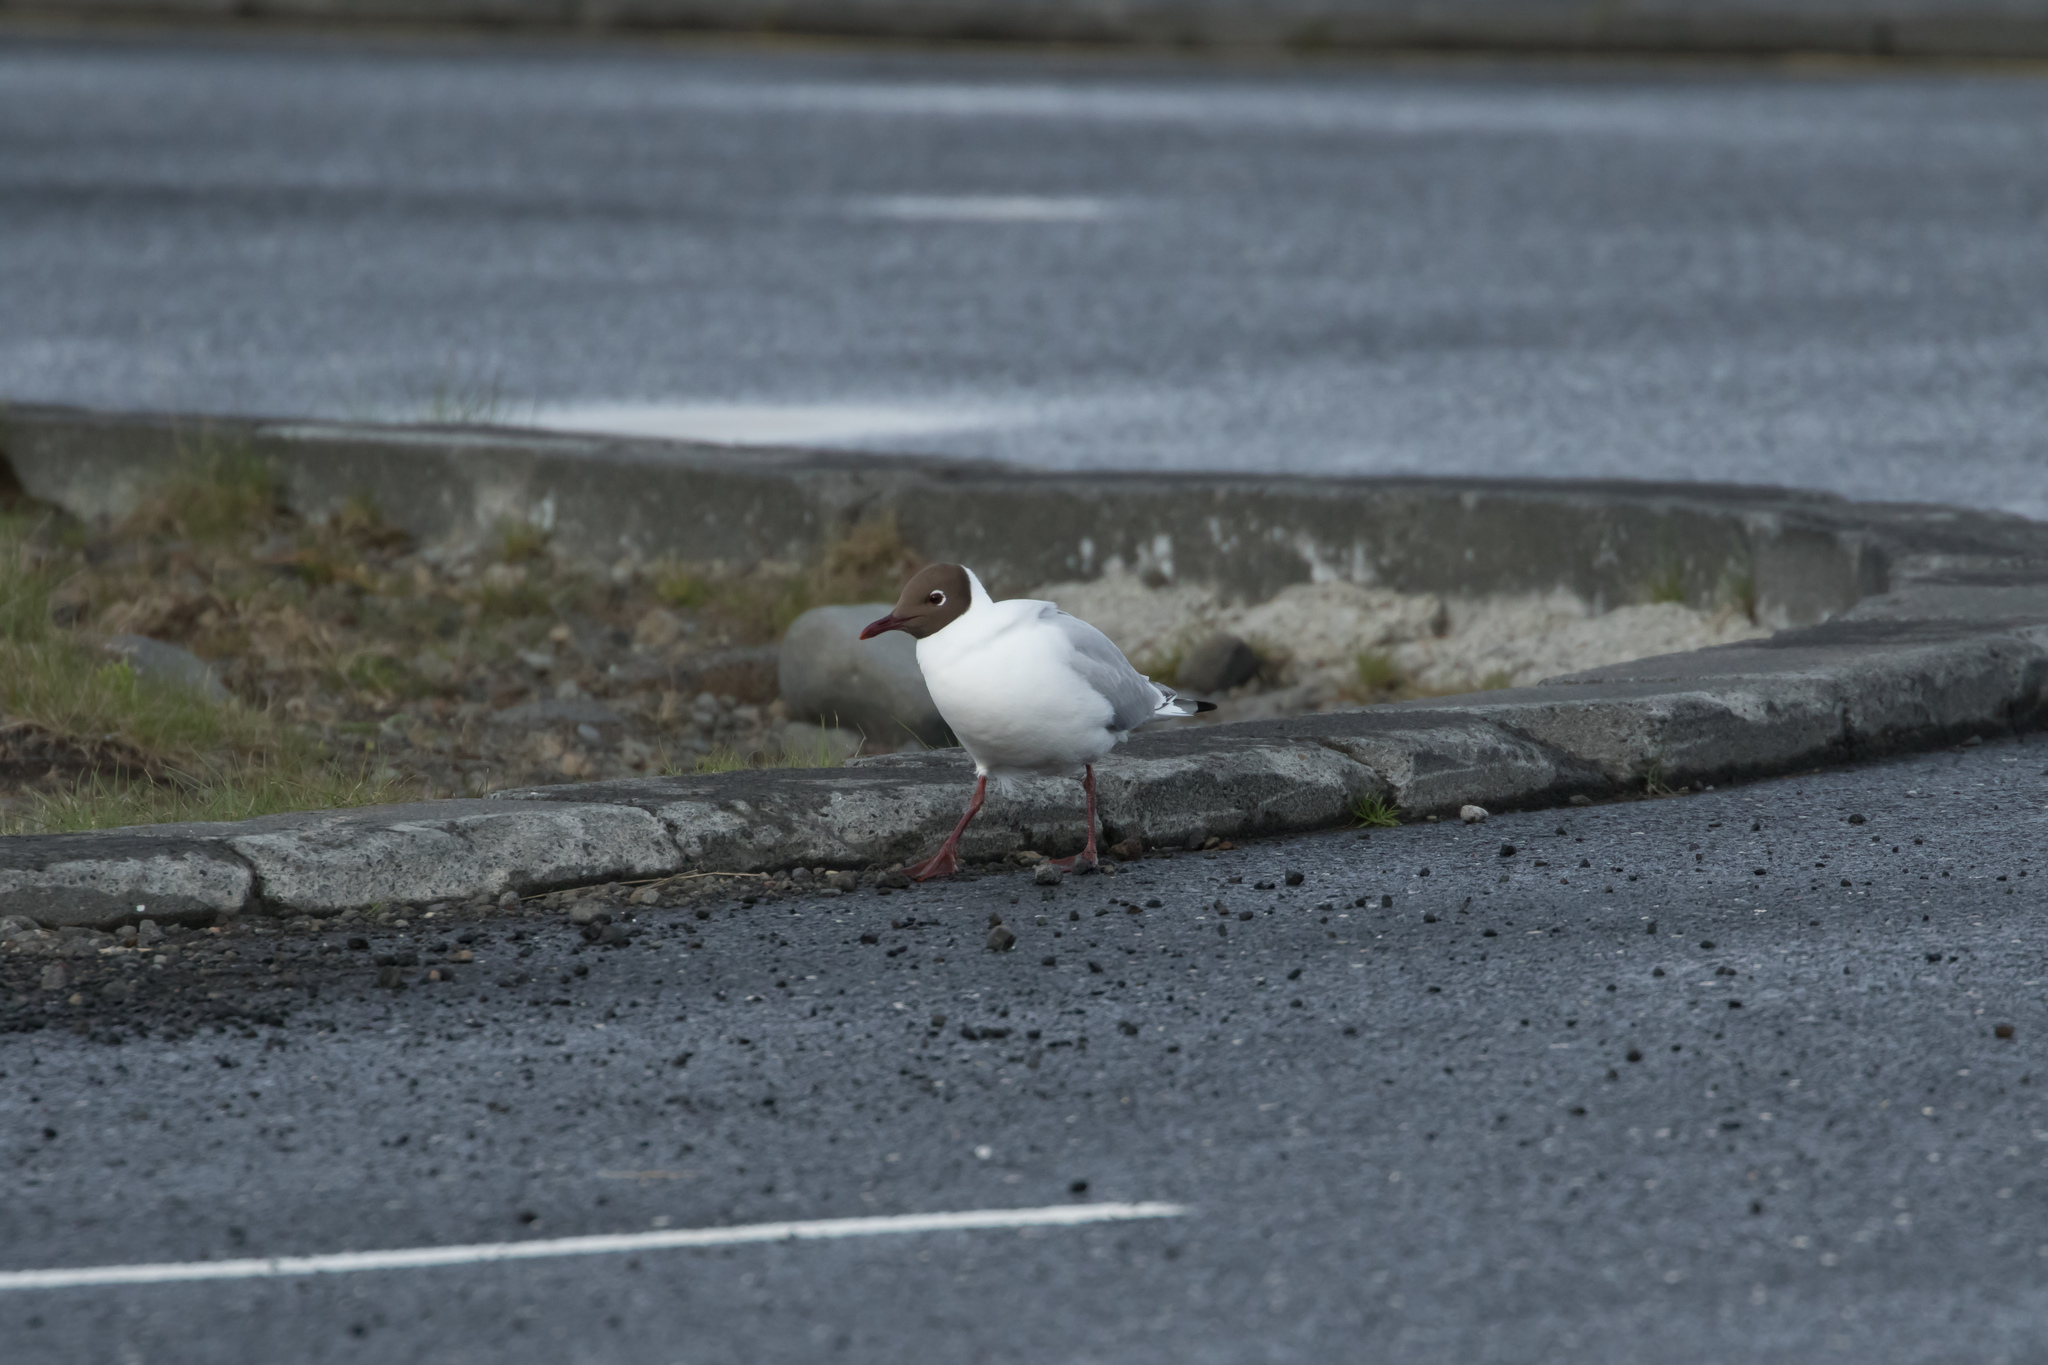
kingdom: Animalia
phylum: Chordata
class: Aves
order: Charadriiformes
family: Laridae
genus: Chroicocephalus
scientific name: Chroicocephalus ridibundus
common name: Black-headed gull
